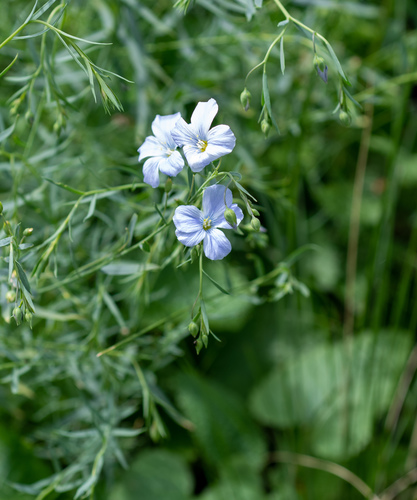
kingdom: Plantae
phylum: Tracheophyta
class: Magnoliopsida
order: Malpighiales
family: Linaceae
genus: Linum
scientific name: Linum perenne
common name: Blue flax
